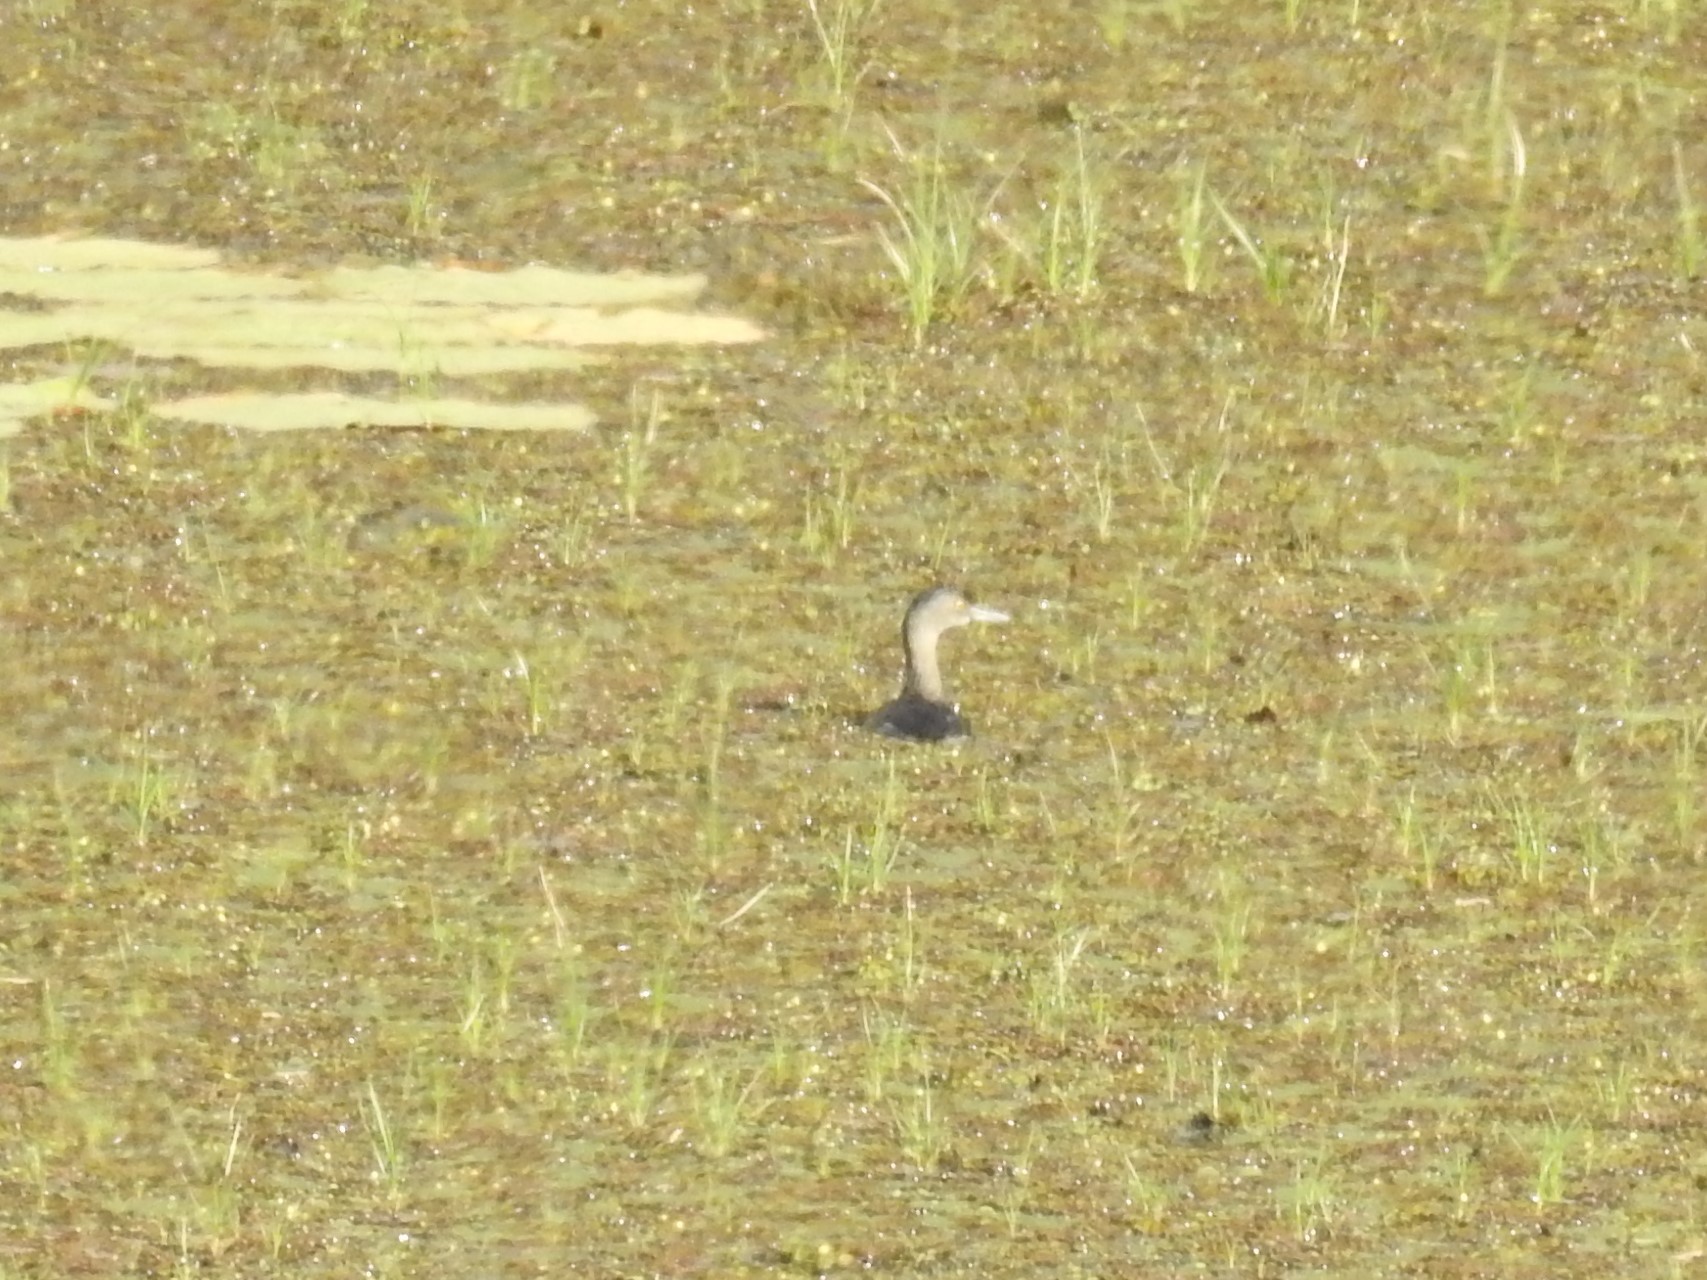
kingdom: Animalia
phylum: Chordata
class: Aves
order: Podicipediformes
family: Podicipedidae
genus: Tachybaptus
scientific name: Tachybaptus dominicus
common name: Least grebe
